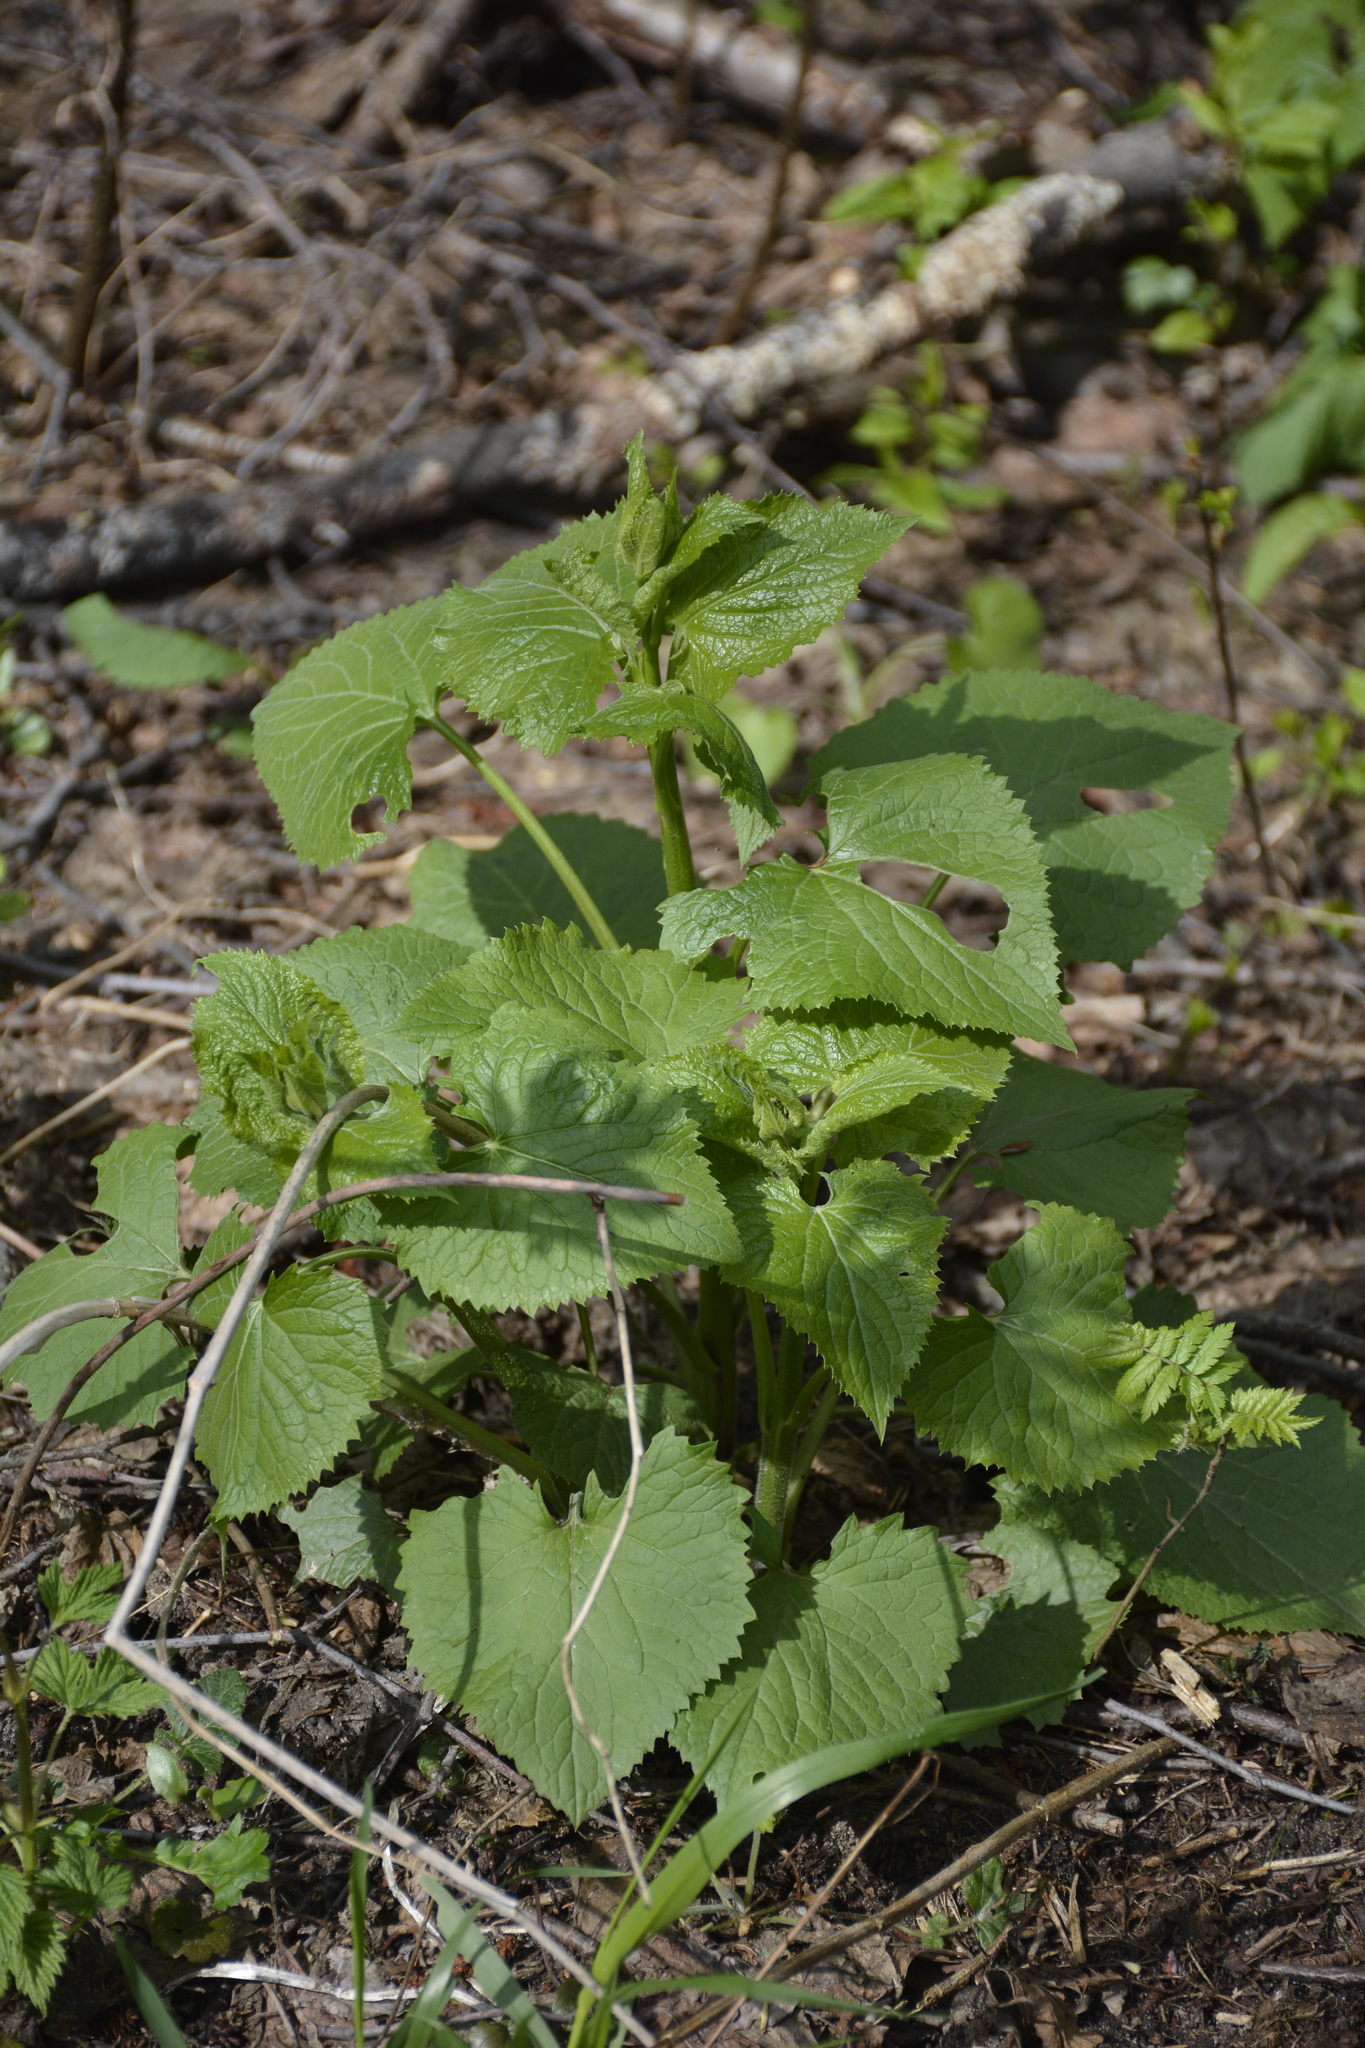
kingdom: Plantae
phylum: Tracheophyta
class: Magnoliopsida
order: Brassicales
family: Brassicaceae
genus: Lunaria
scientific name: Lunaria rediviva
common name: Perennial honesty
